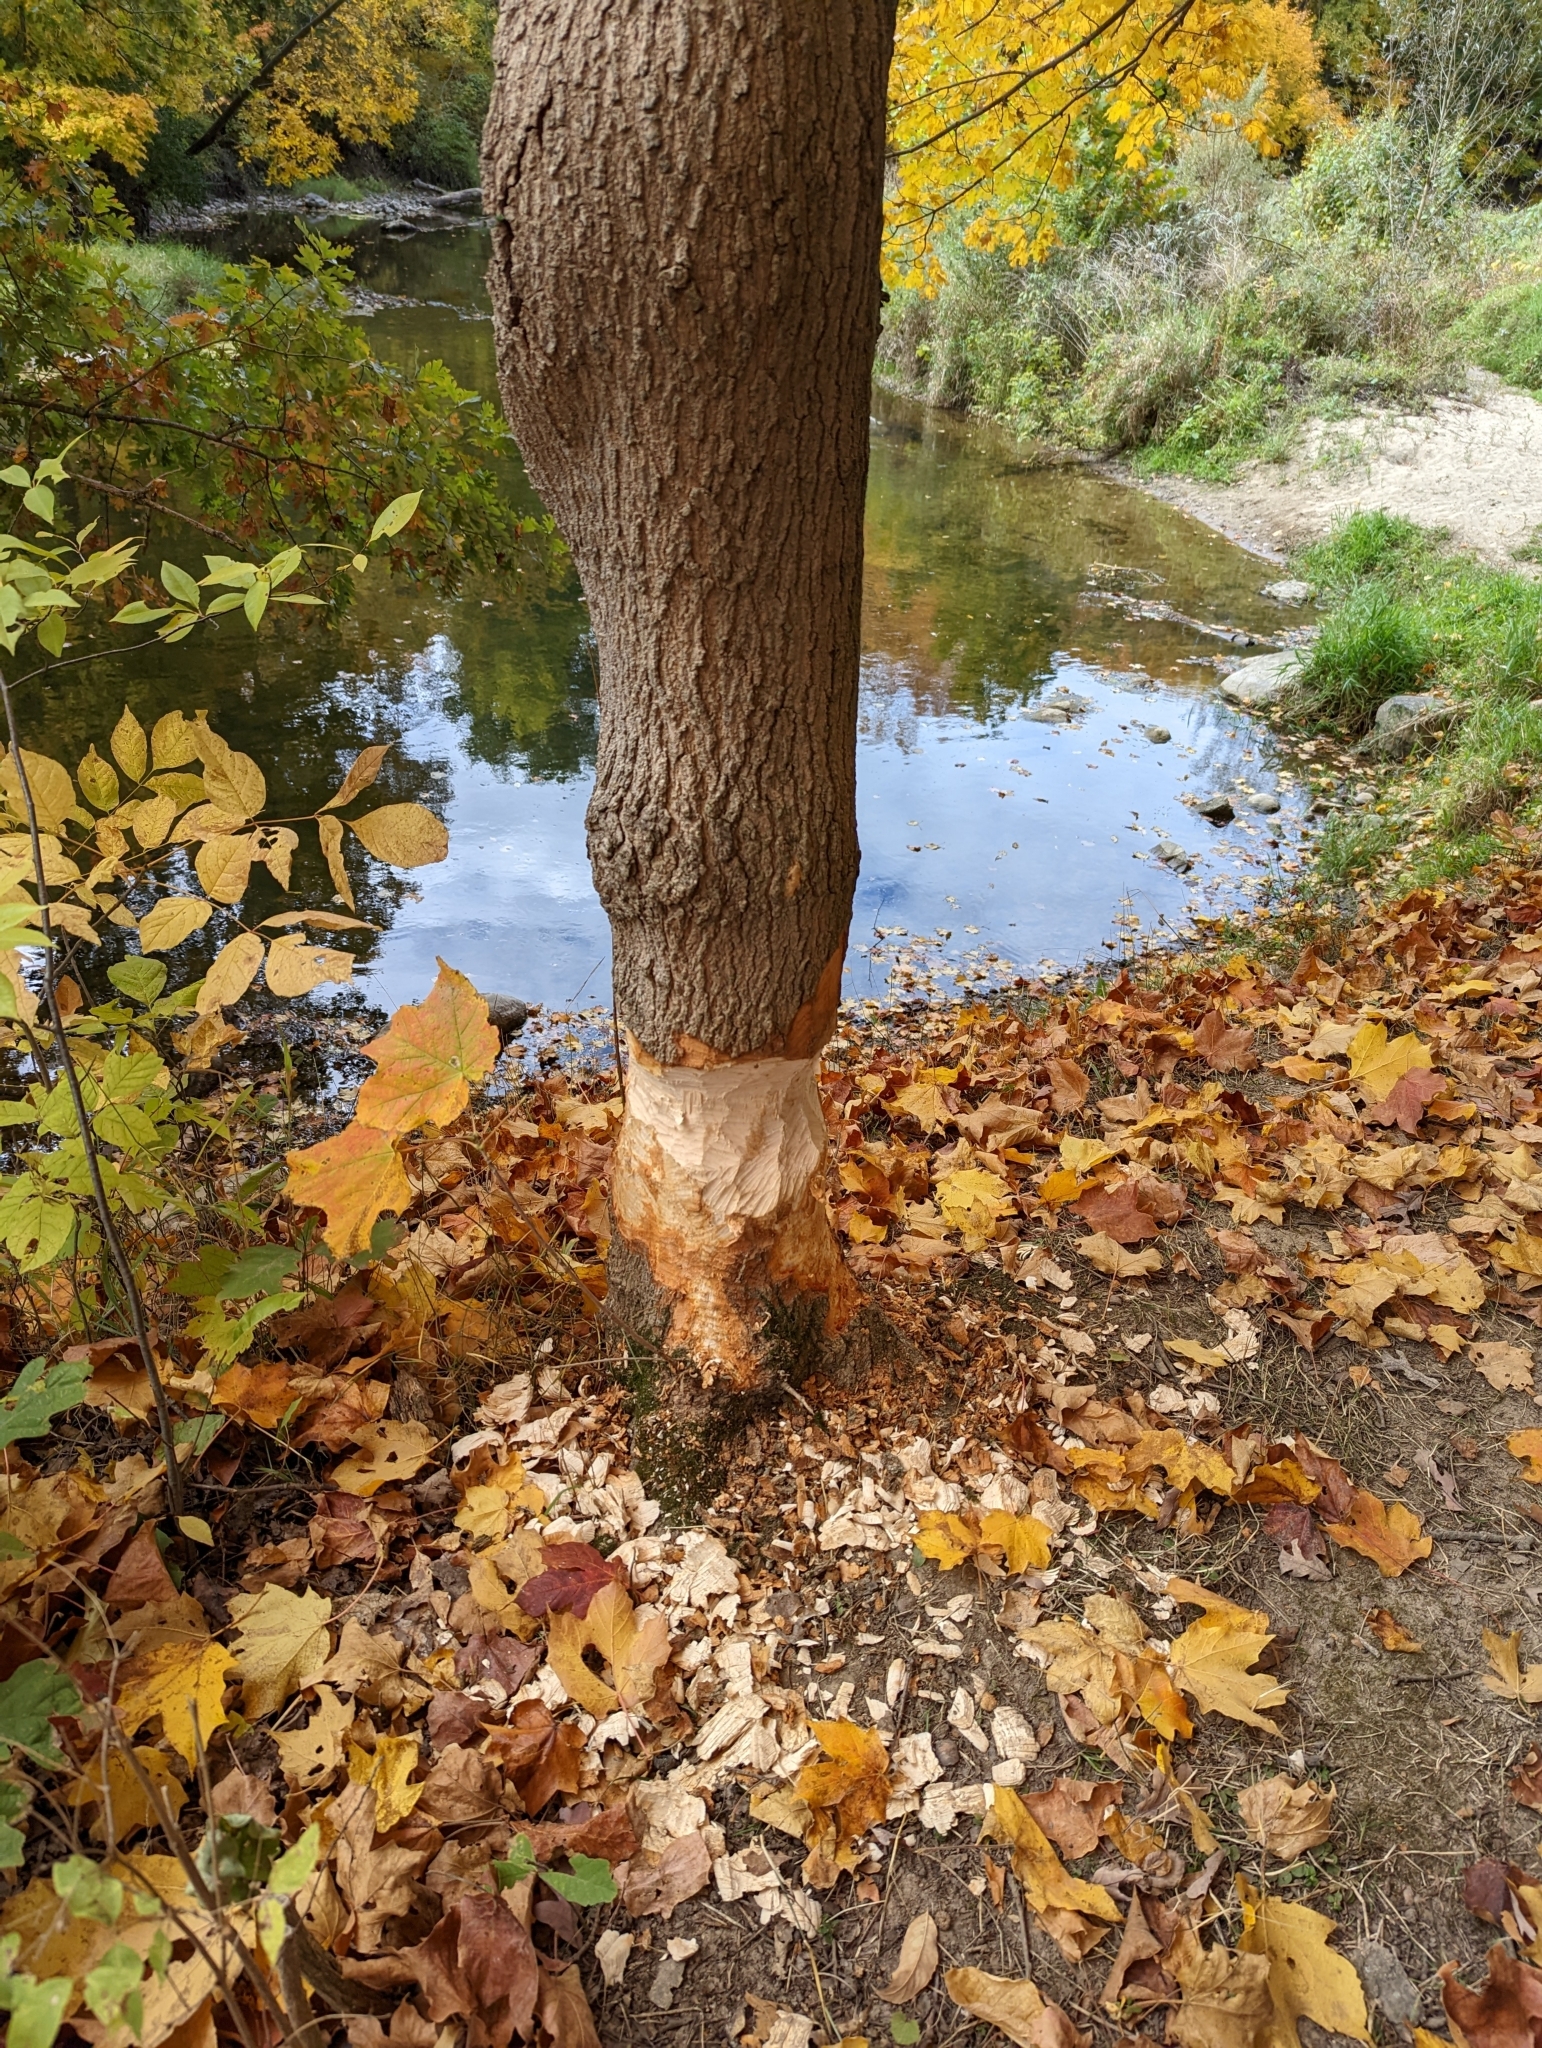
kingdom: Animalia
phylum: Chordata
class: Mammalia
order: Rodentia
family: Castoridae
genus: Castor
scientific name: Castor canadensis
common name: American beaver
